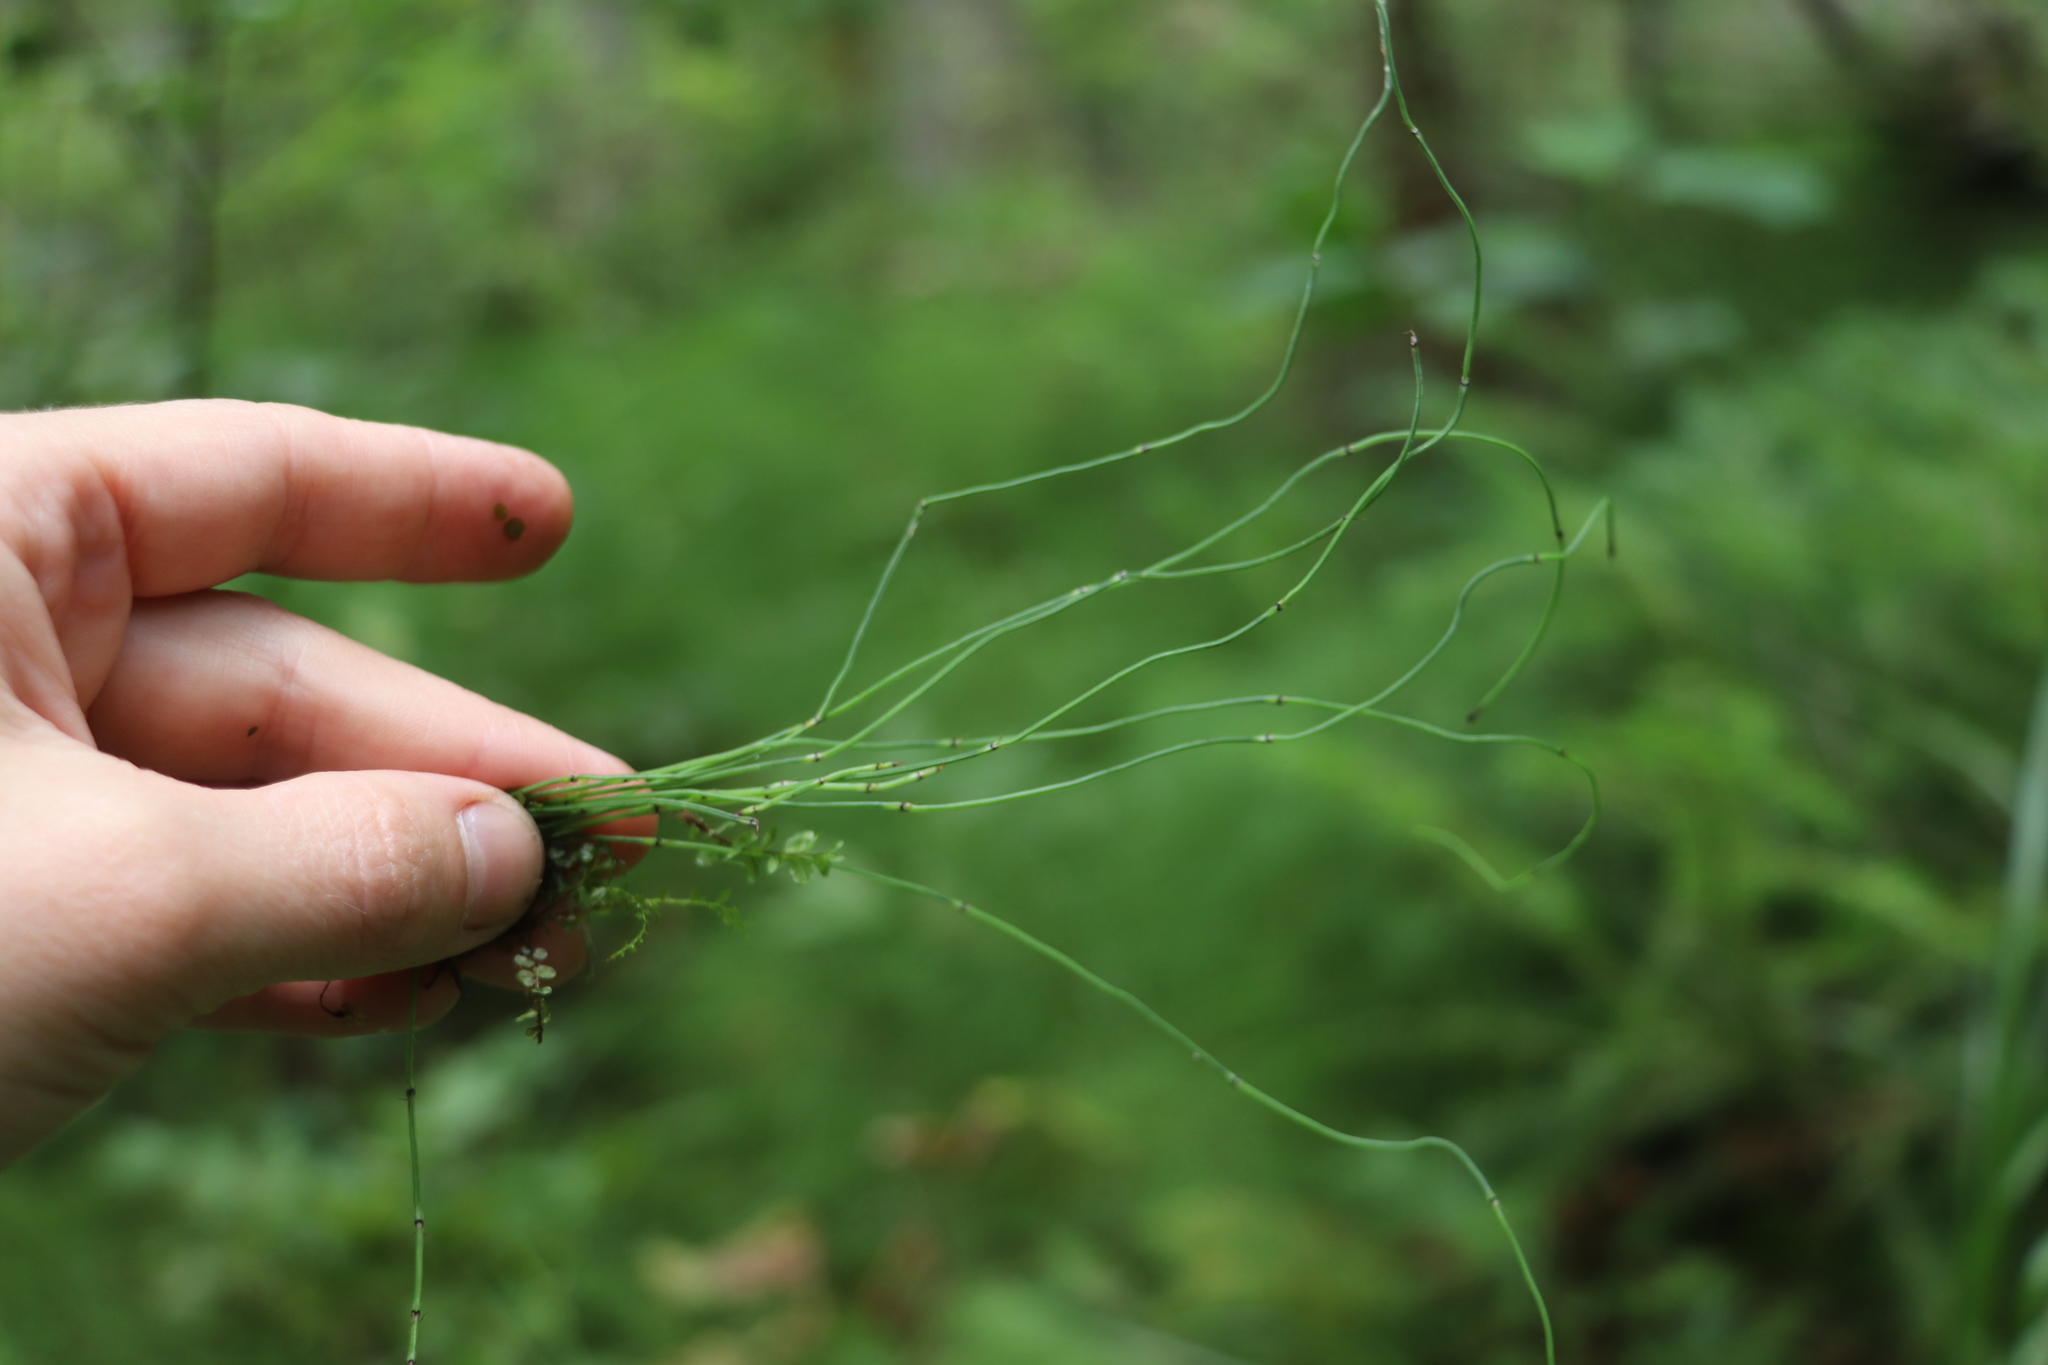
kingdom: Plantae
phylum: Tracheophyta
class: Polypodiopsida
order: Equisetales
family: Equisetaceae
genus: Equisetum
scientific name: Equisetum scirpoides
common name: Delicate horsetail
